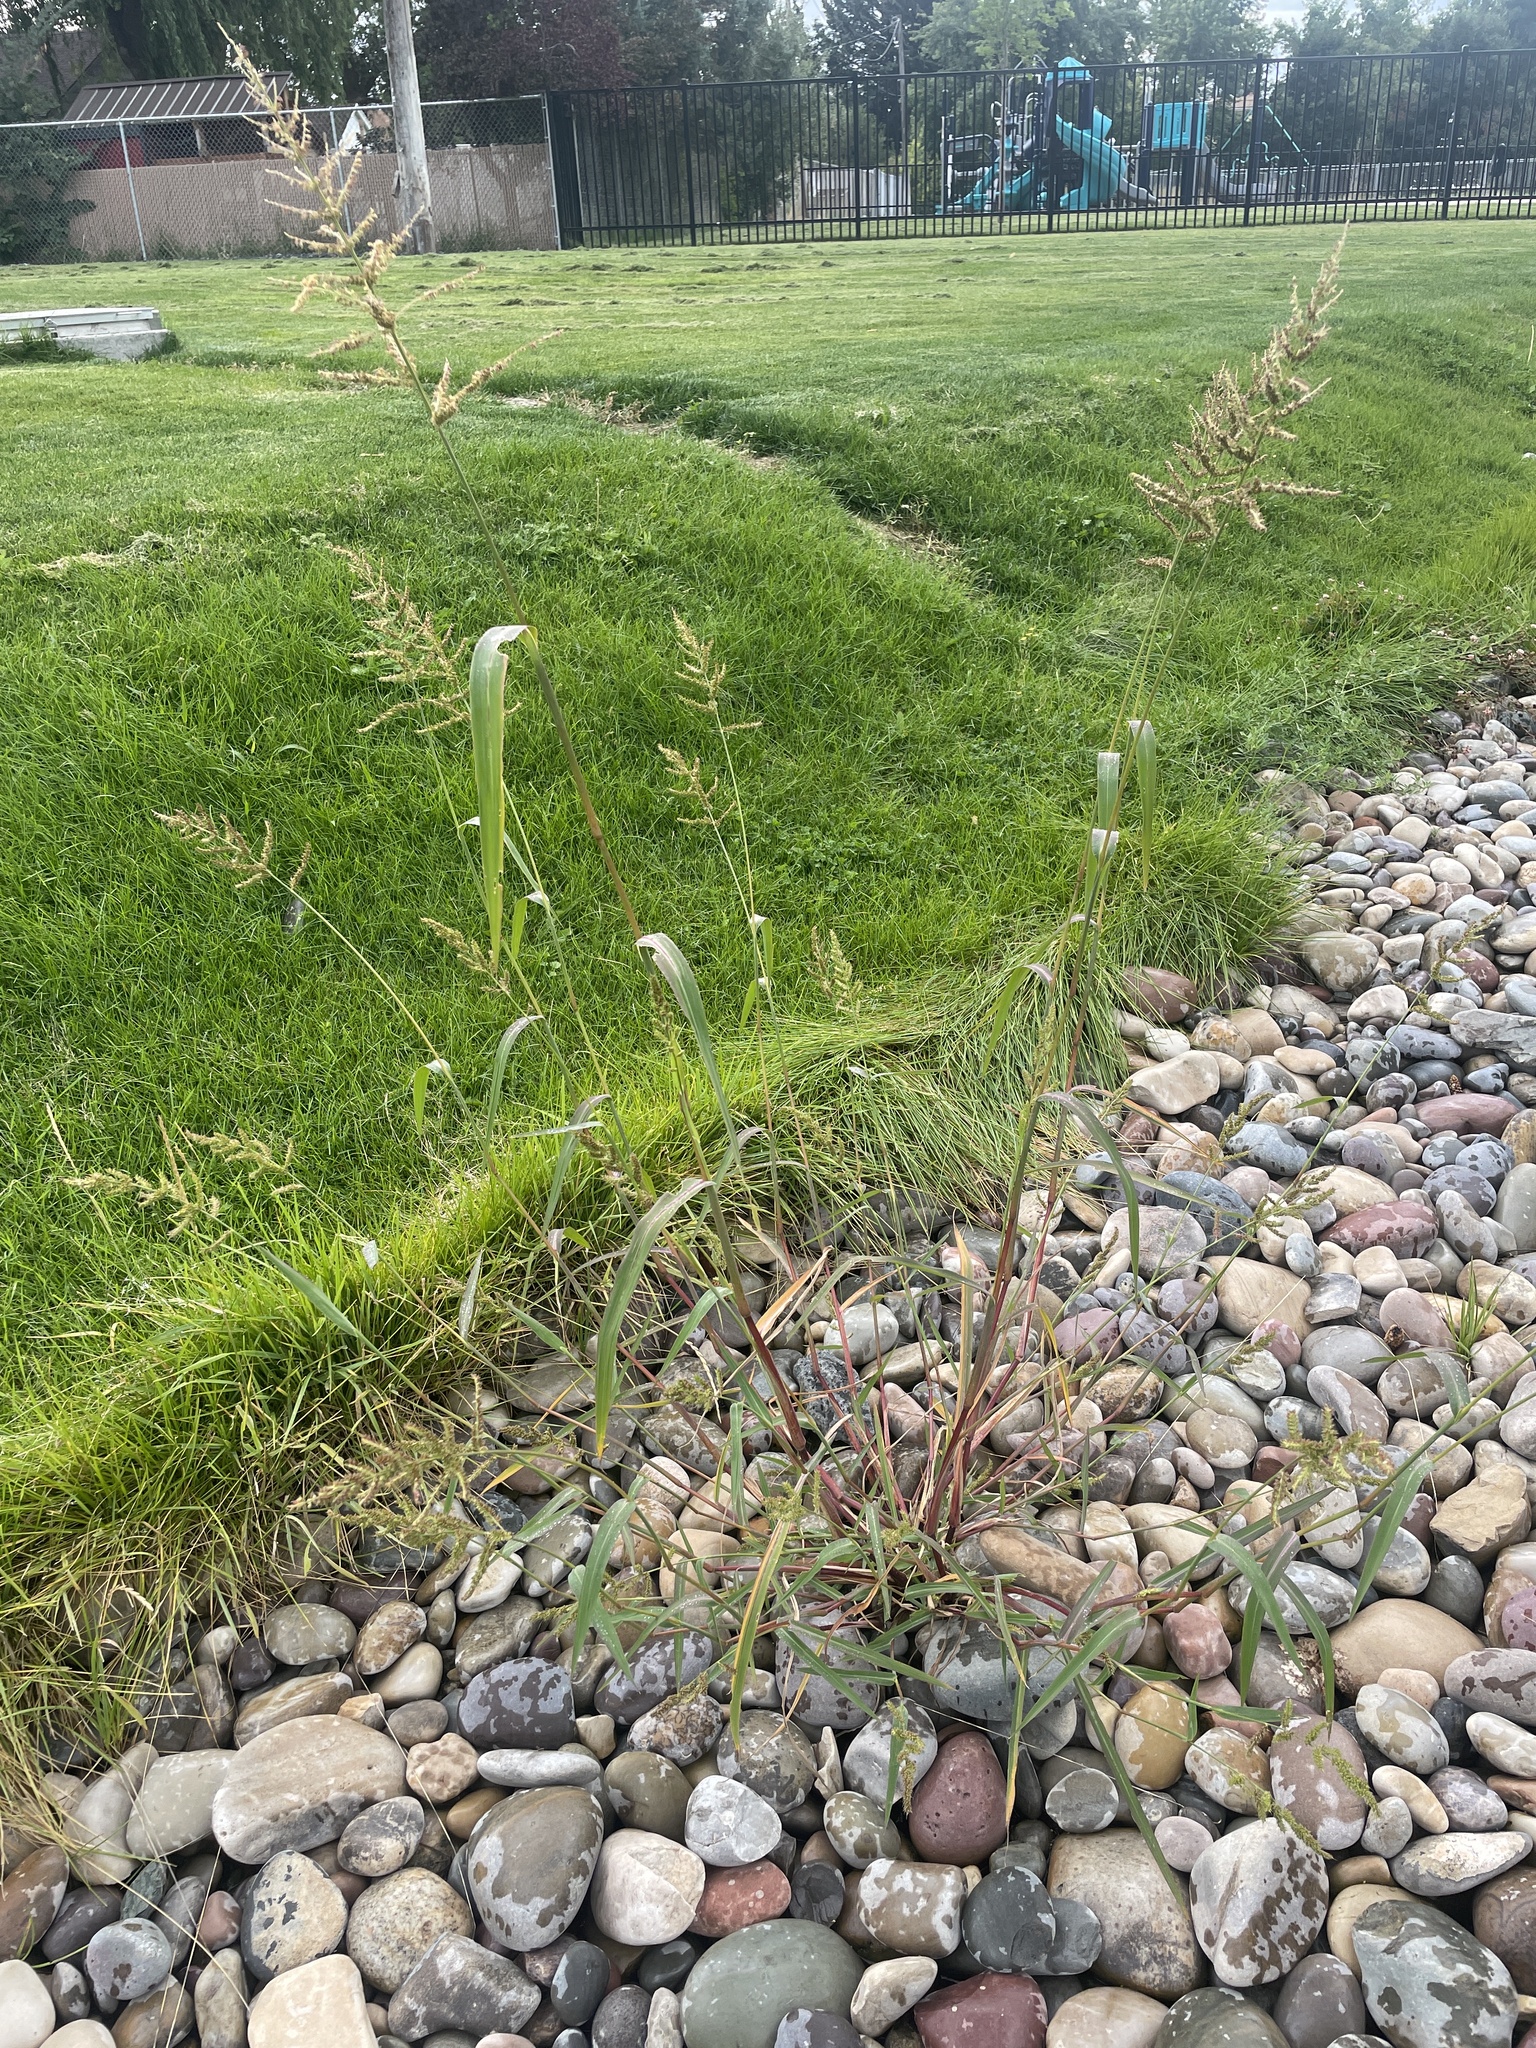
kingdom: Plantae
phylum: Tracheophyta
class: Liliopsida
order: Poales
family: Poaceae
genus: Echinochloa
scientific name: Echinochloa crus-galli
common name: Cockspur
